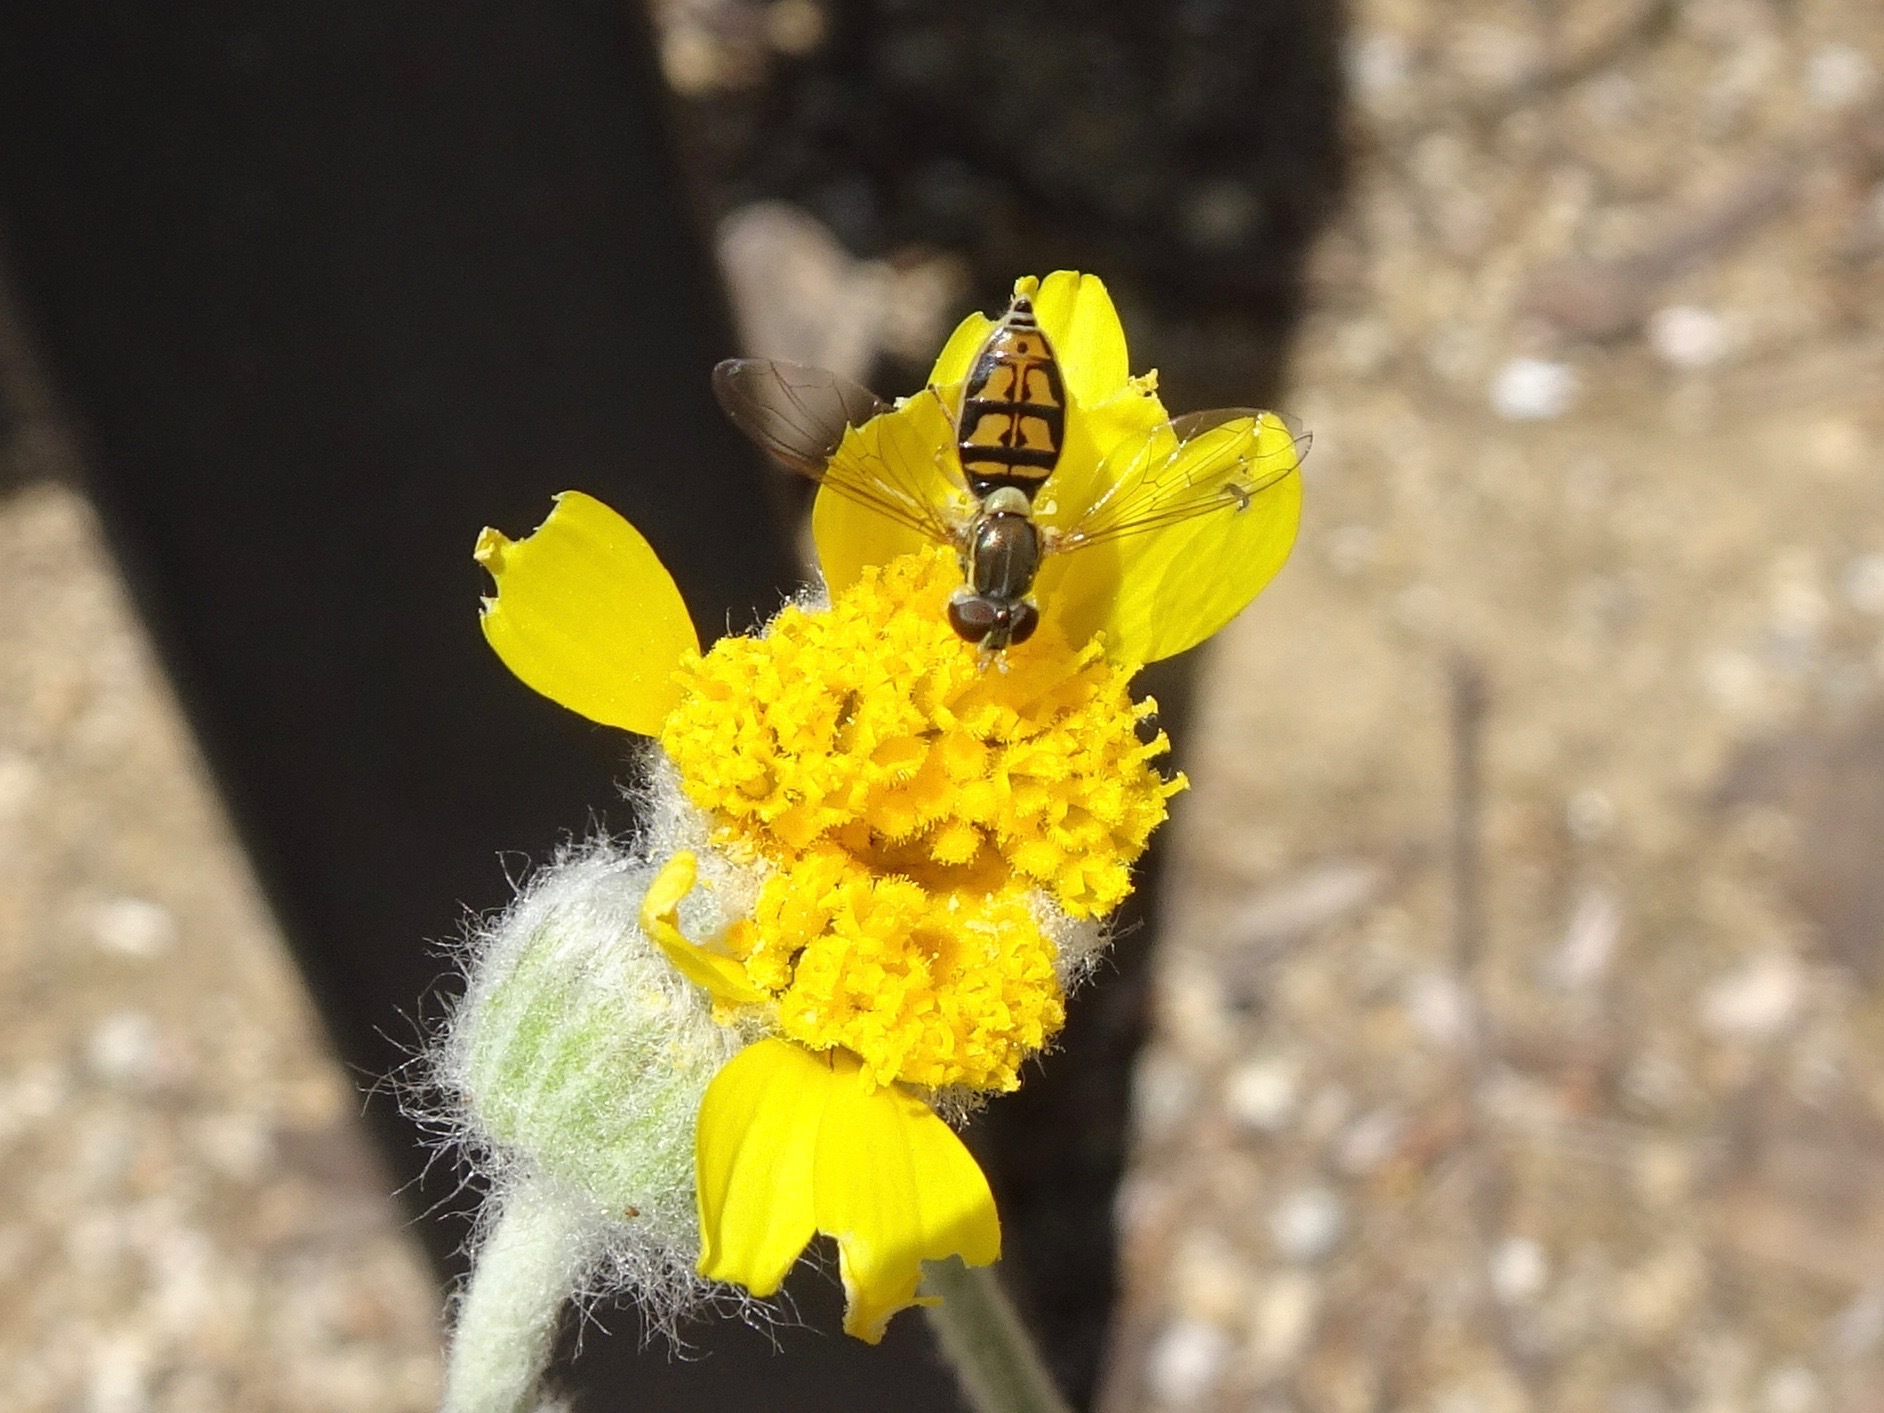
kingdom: Animalia
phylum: Arthropoda
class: Insecta
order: Diptera
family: Syrphidae
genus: Toxomerus
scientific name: Toxomerus marginatus
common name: Syrphid fly
